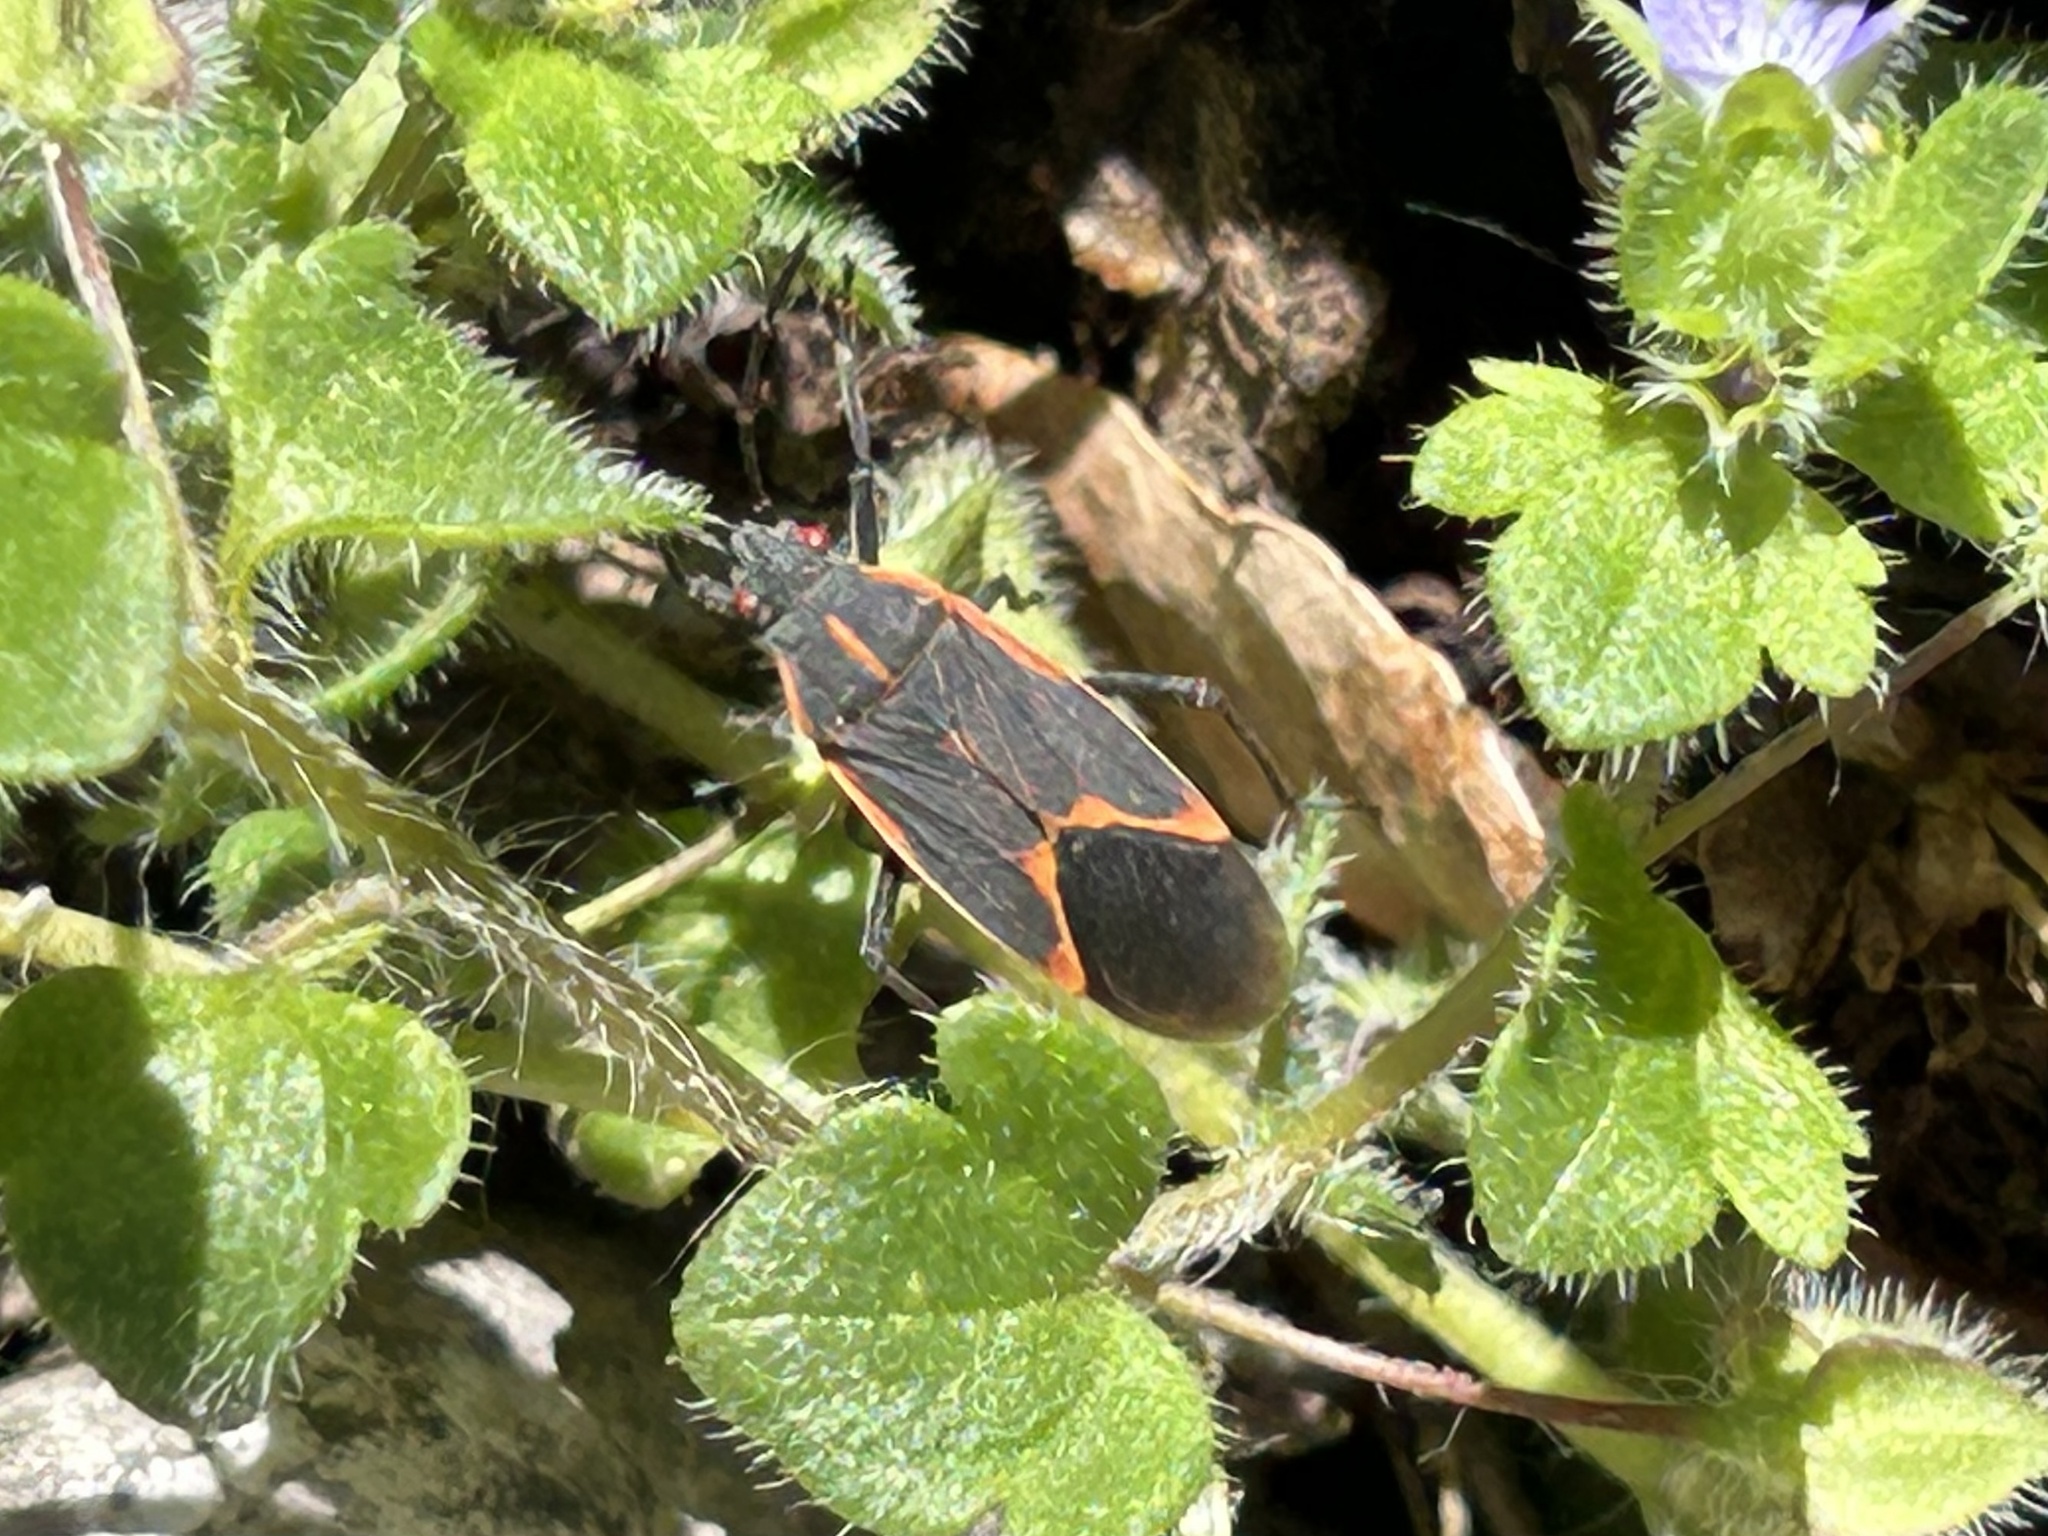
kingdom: Animalia
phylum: Arthropoda
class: Insecta
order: Hemiptera
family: Rhopalidae
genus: Boisea
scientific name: Boisea trivittata
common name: Boxelder bug
